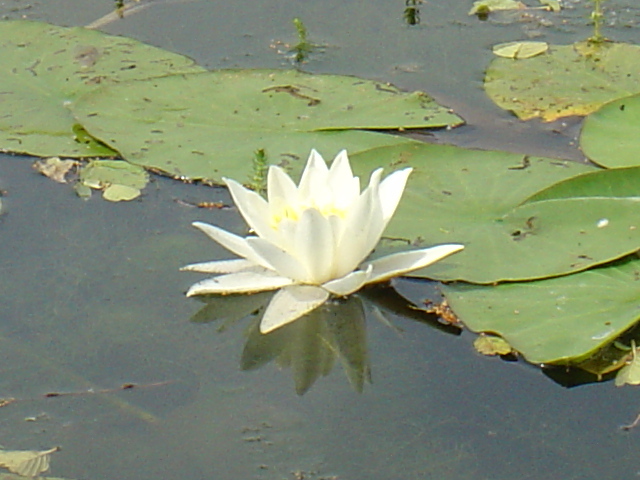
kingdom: Plantae
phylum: Tracheophyta
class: Magnoliopsida
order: Nymphaeales
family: Nymphaeaceae
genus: Nymphaea
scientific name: Nymphaea alba
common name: White water-lily
